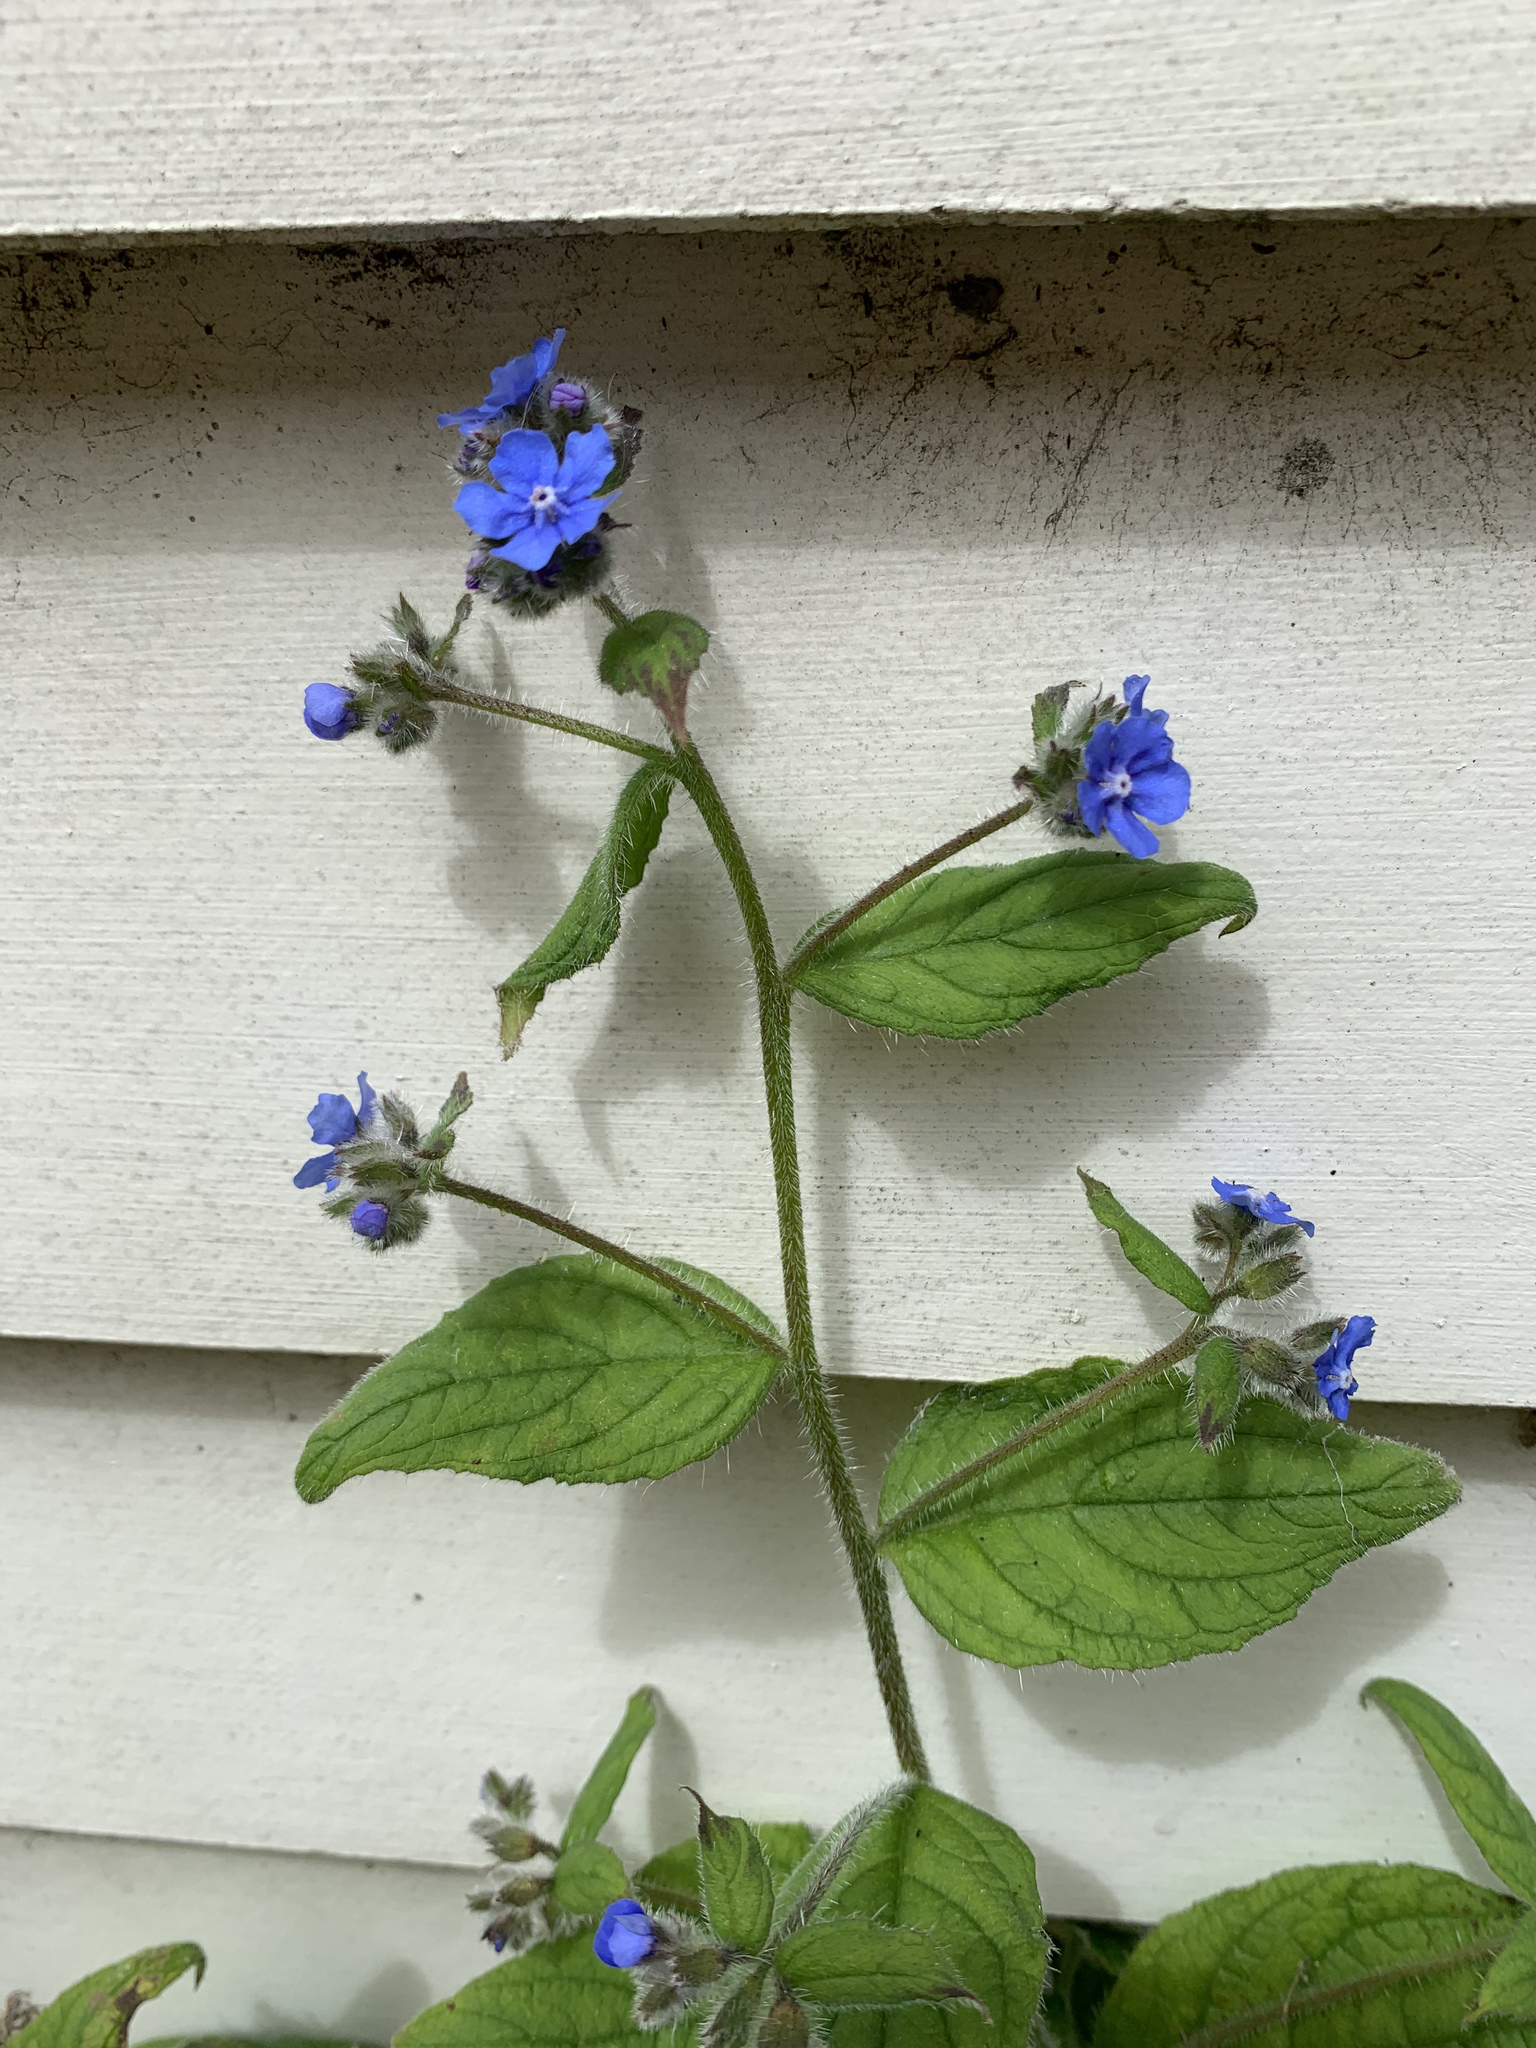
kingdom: Plantae
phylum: Tracheophyta
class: Magnoliopsida
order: Boraginales
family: Boraginaceae
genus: Pentaglottis
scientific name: Pentaglottis sempervirens
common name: Green alkanet
